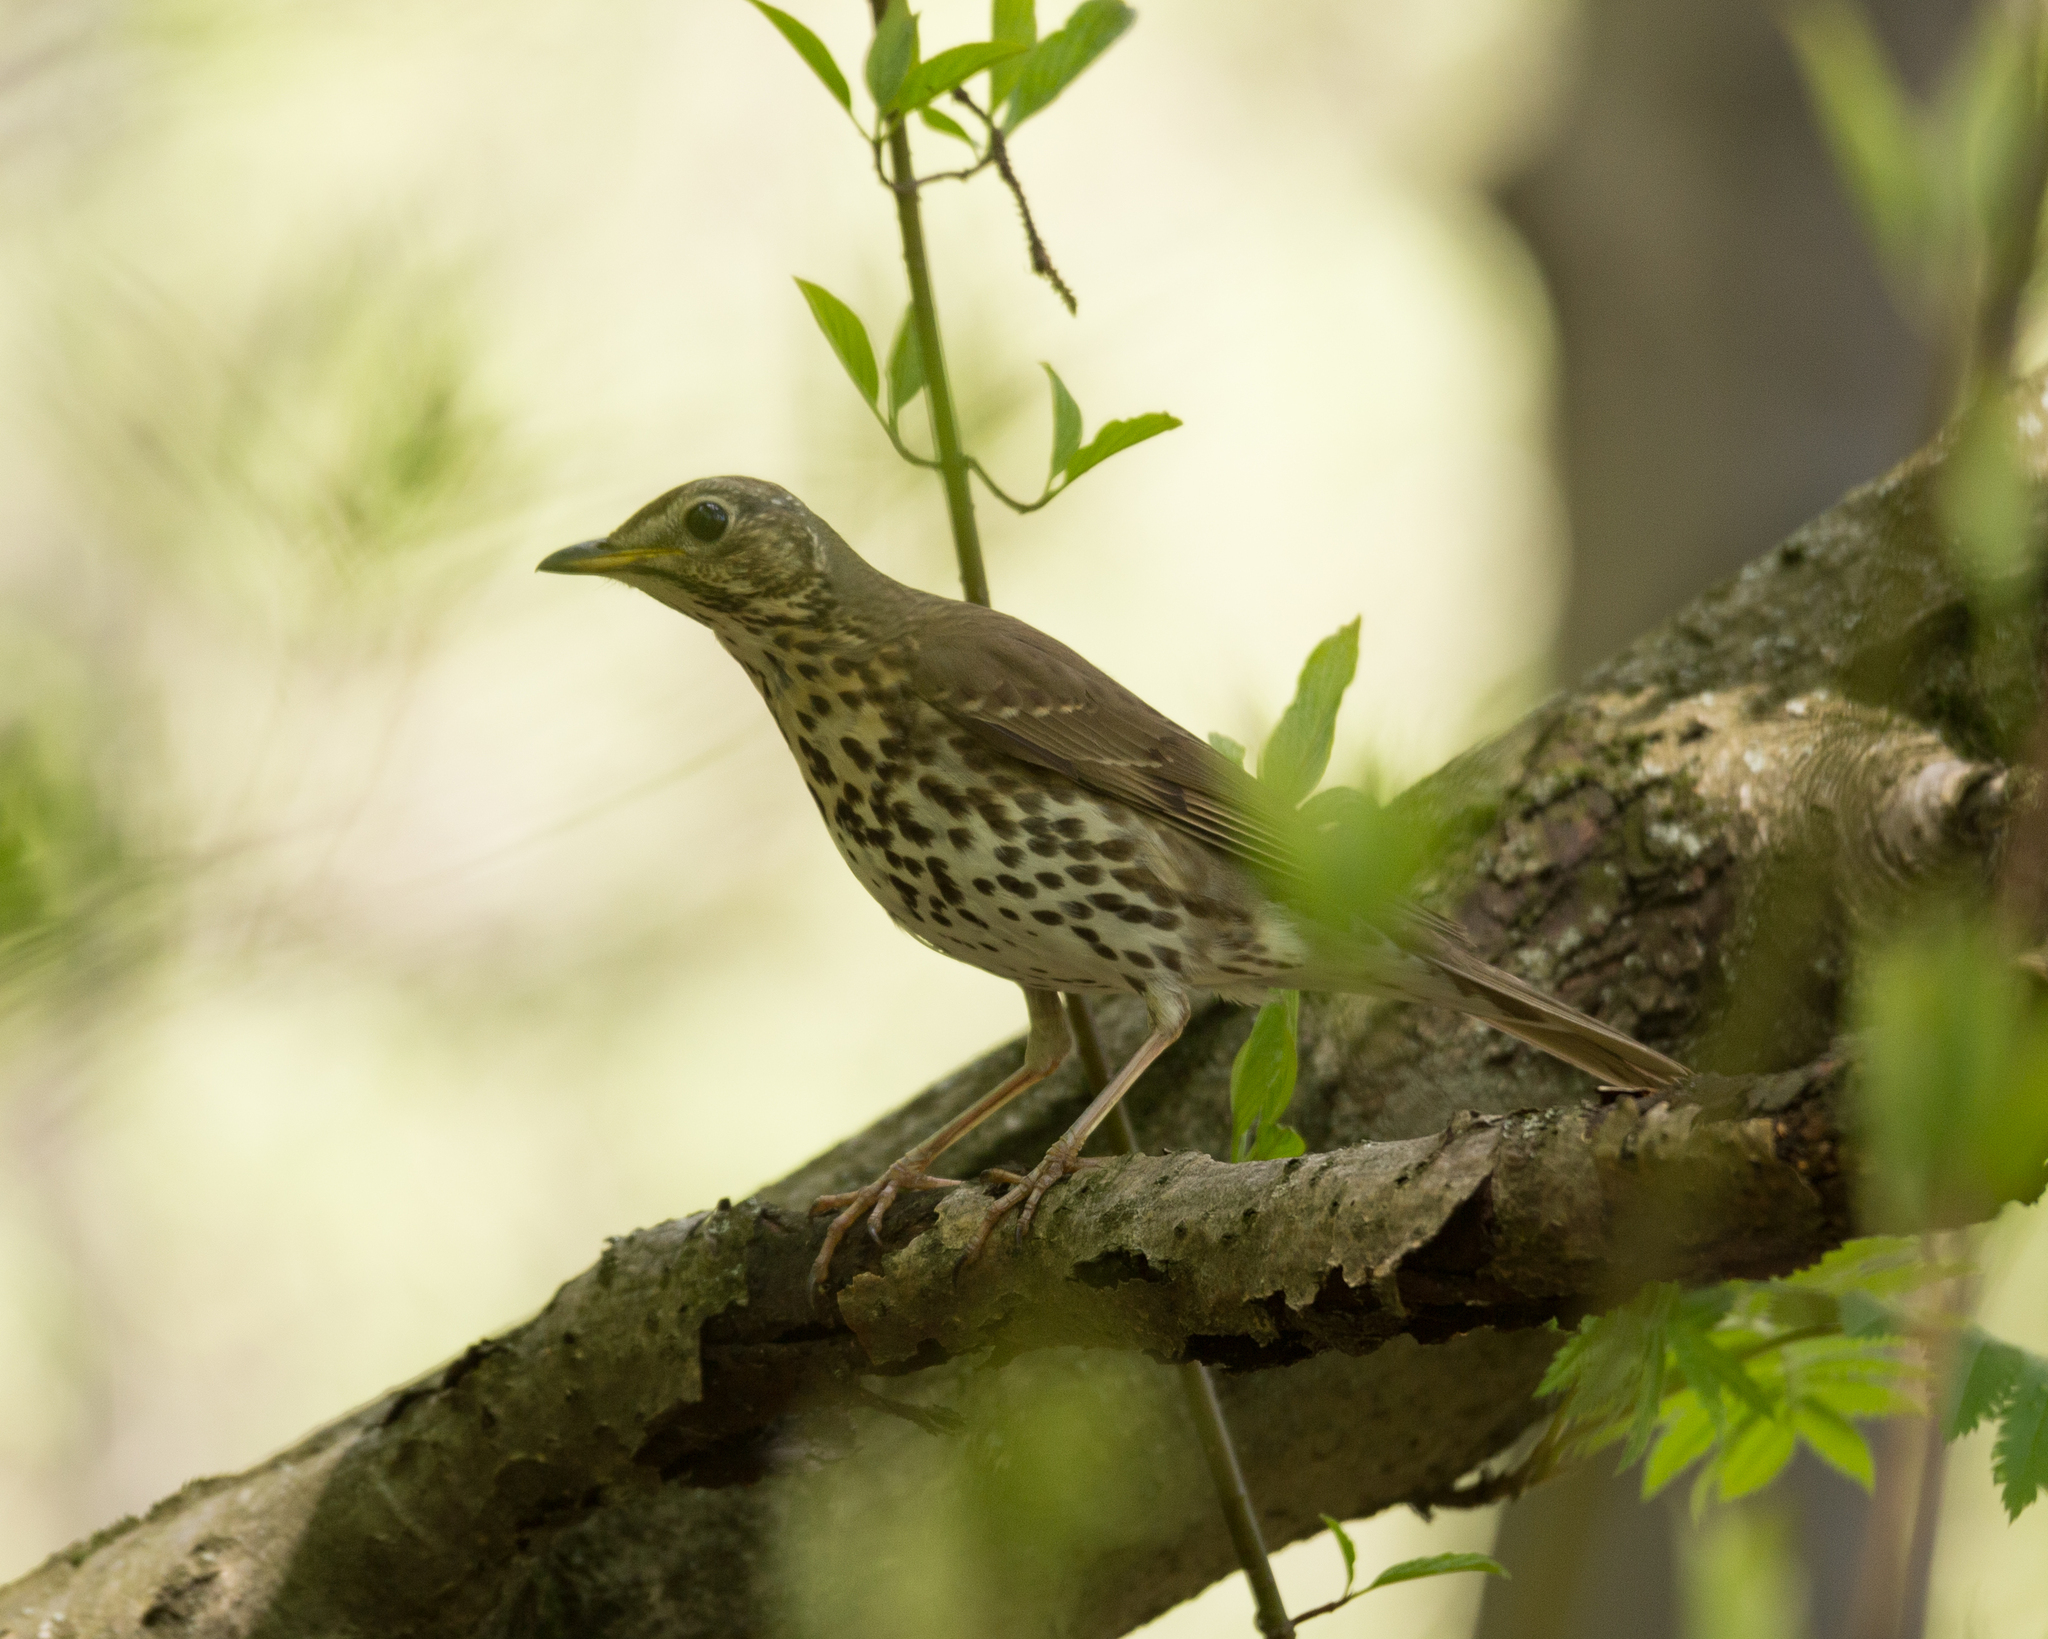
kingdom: Animalia
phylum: Chordata
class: Aves
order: Passeriformes
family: Turdidae
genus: Turdus
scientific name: Turdus philomelos
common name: Song thrush
